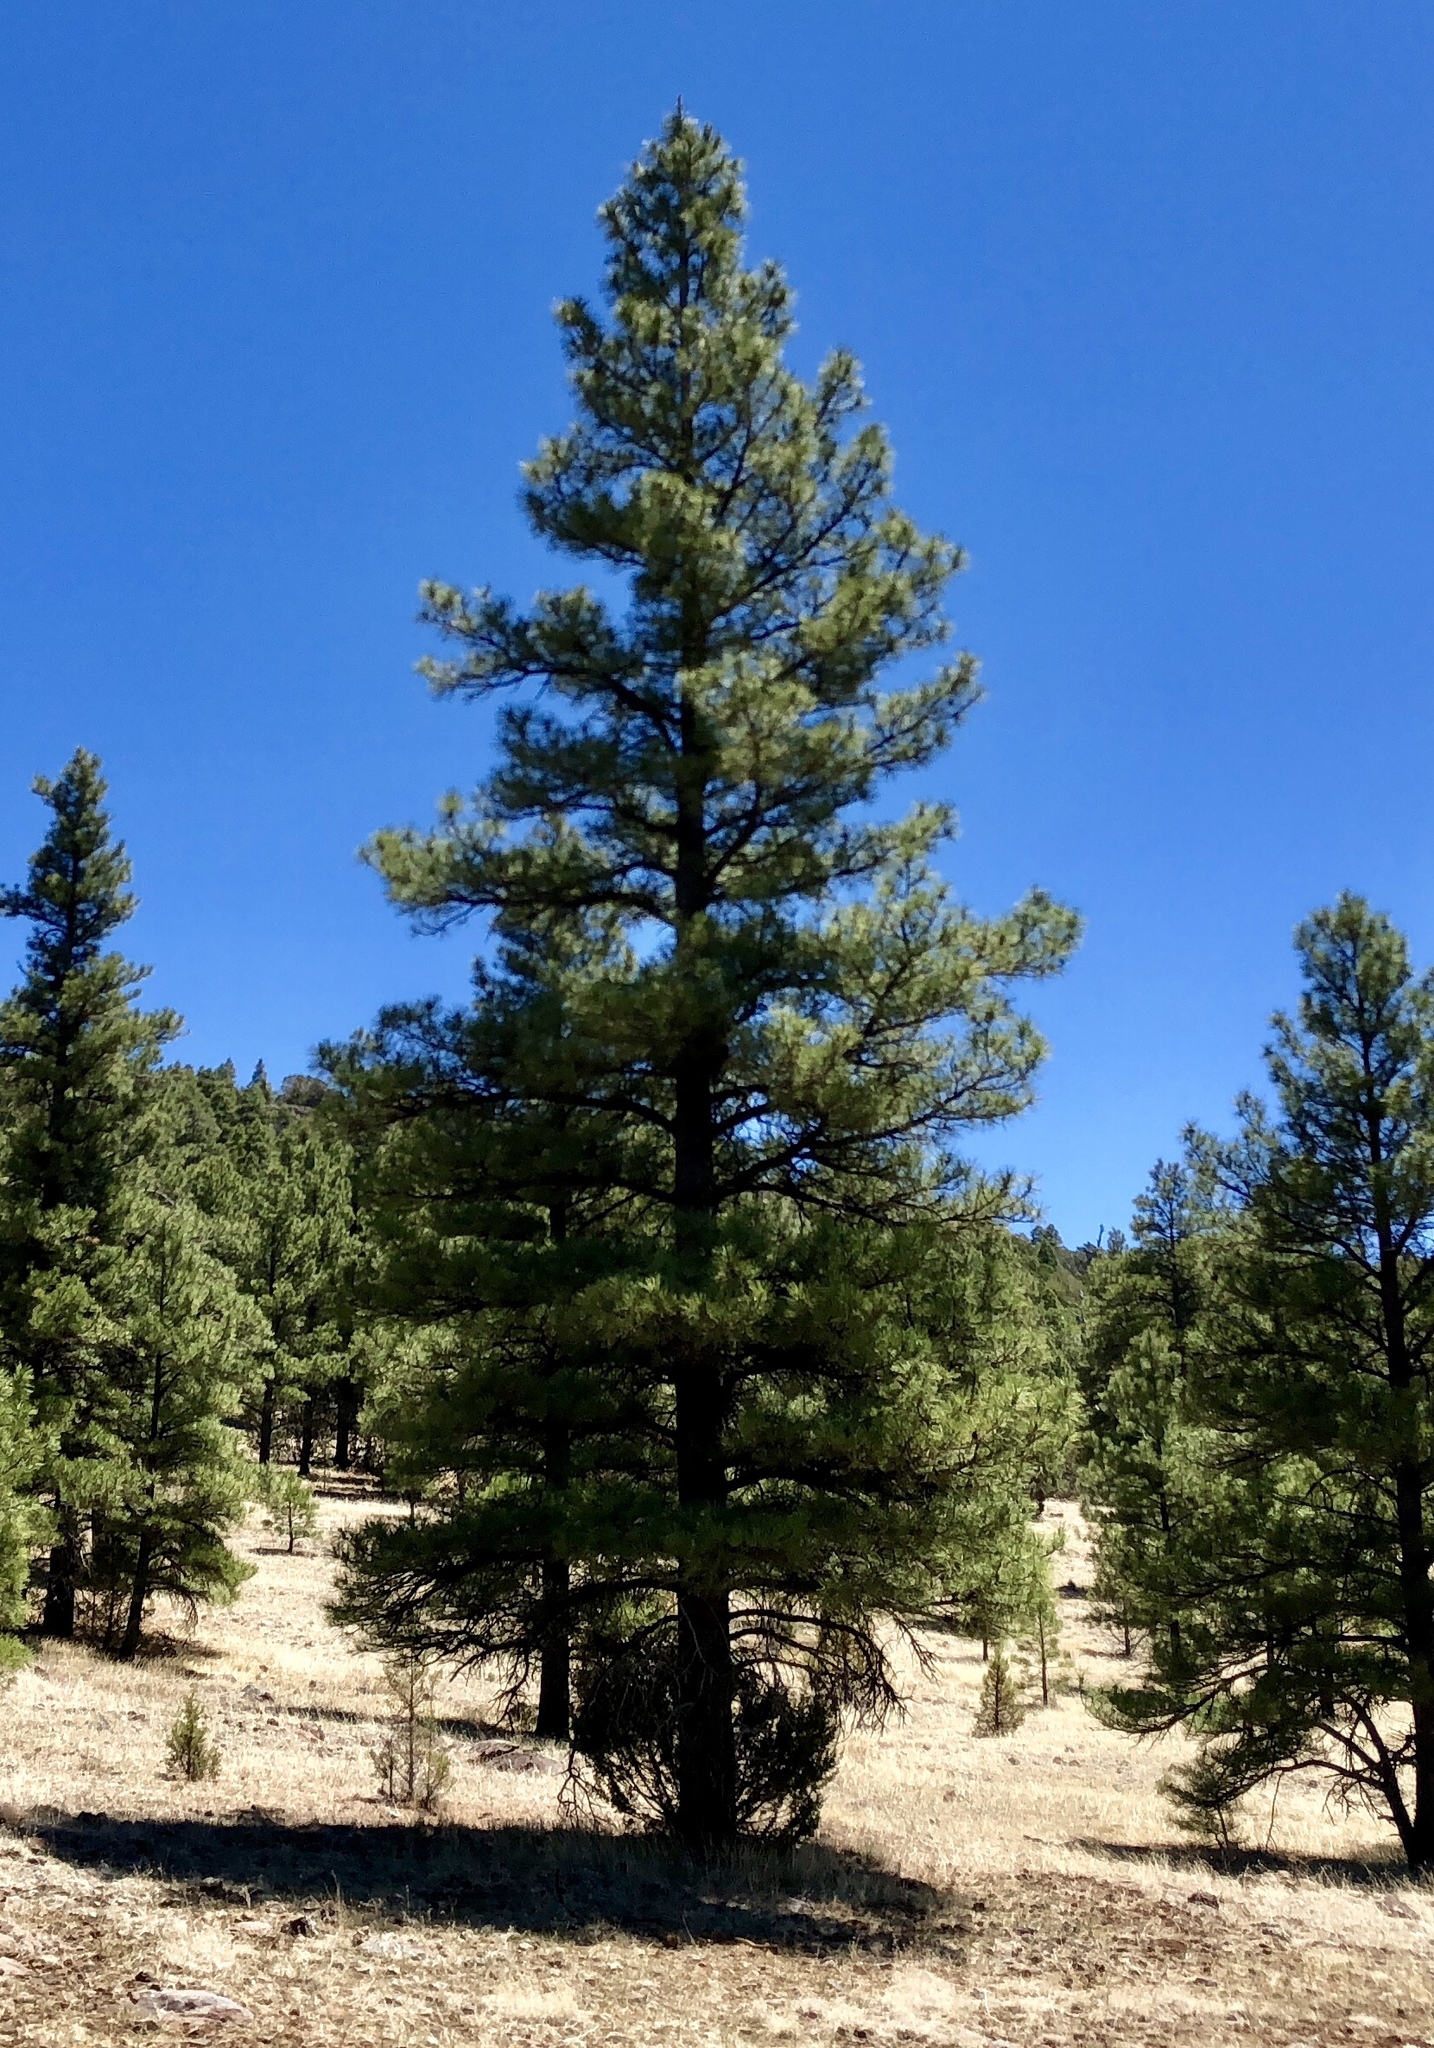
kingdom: Plantae
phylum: Tracheophyta
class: Pinopsida
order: Pinales
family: Pinaceae
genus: Pinus
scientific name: Pinus ponderosa
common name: Western yellow-pine
